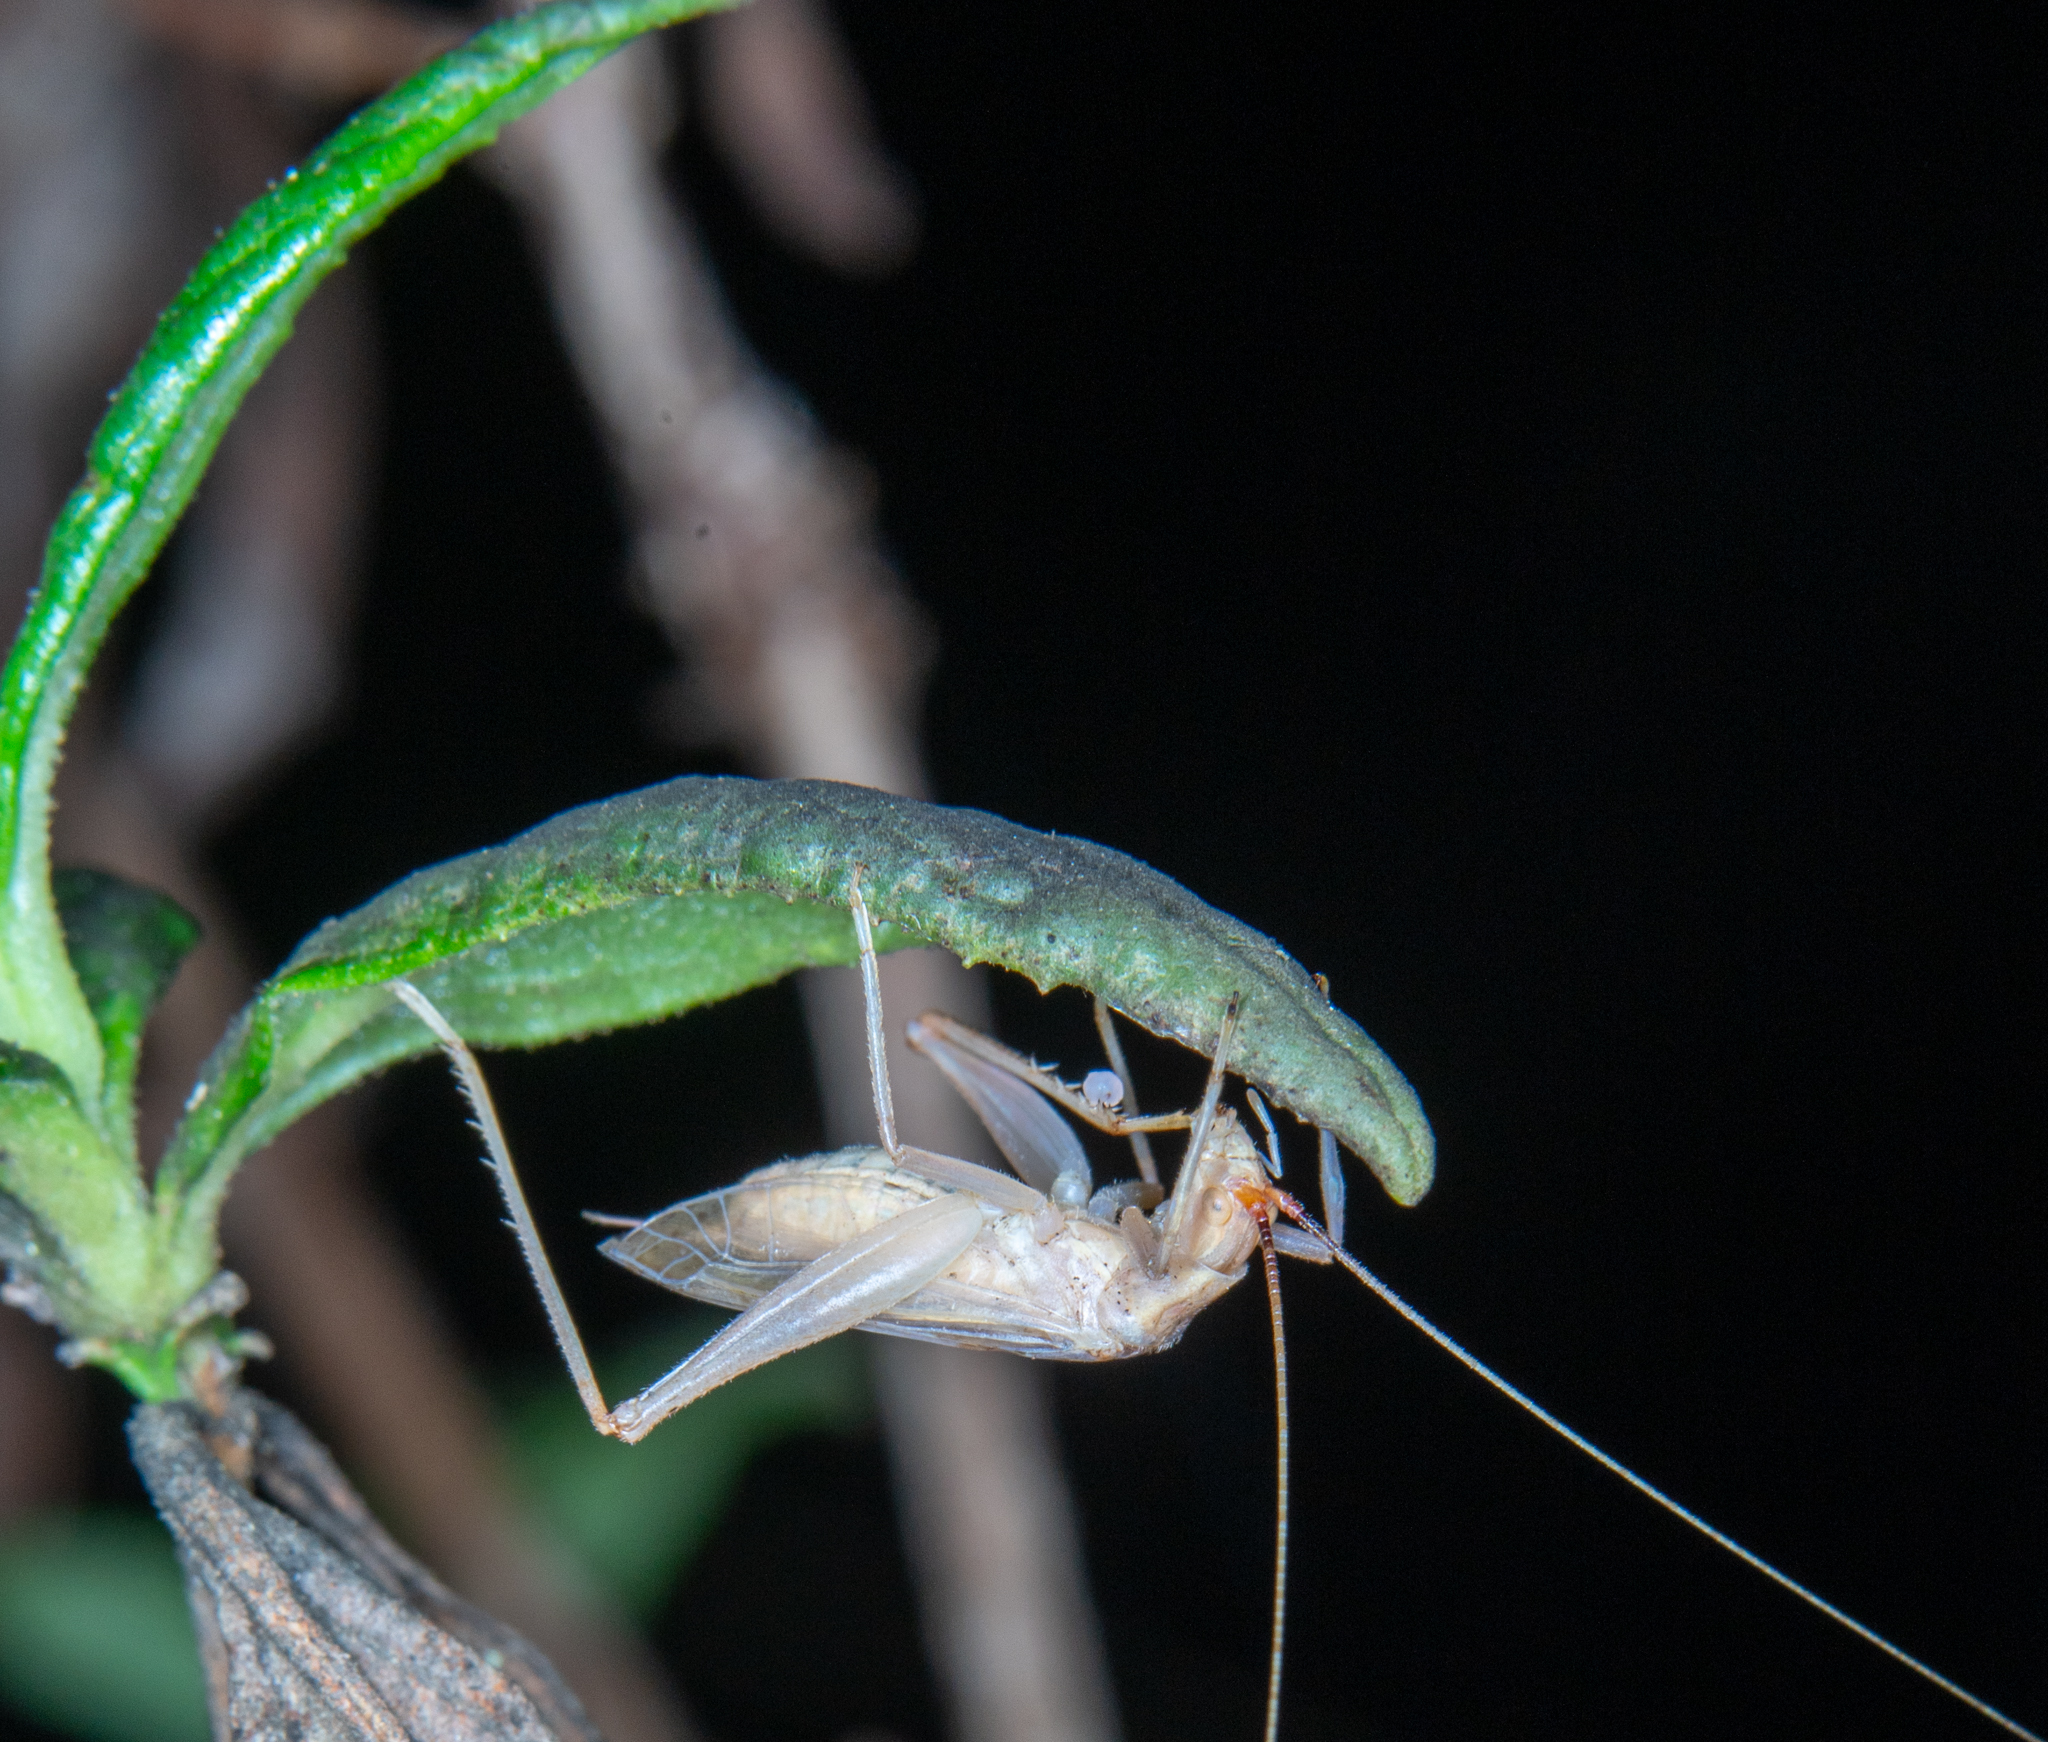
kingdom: Animalia
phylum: Arthropoda
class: Insecta
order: Orthoptera
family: Gryllidae
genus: Oecanthus
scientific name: Oecanthus californicus
